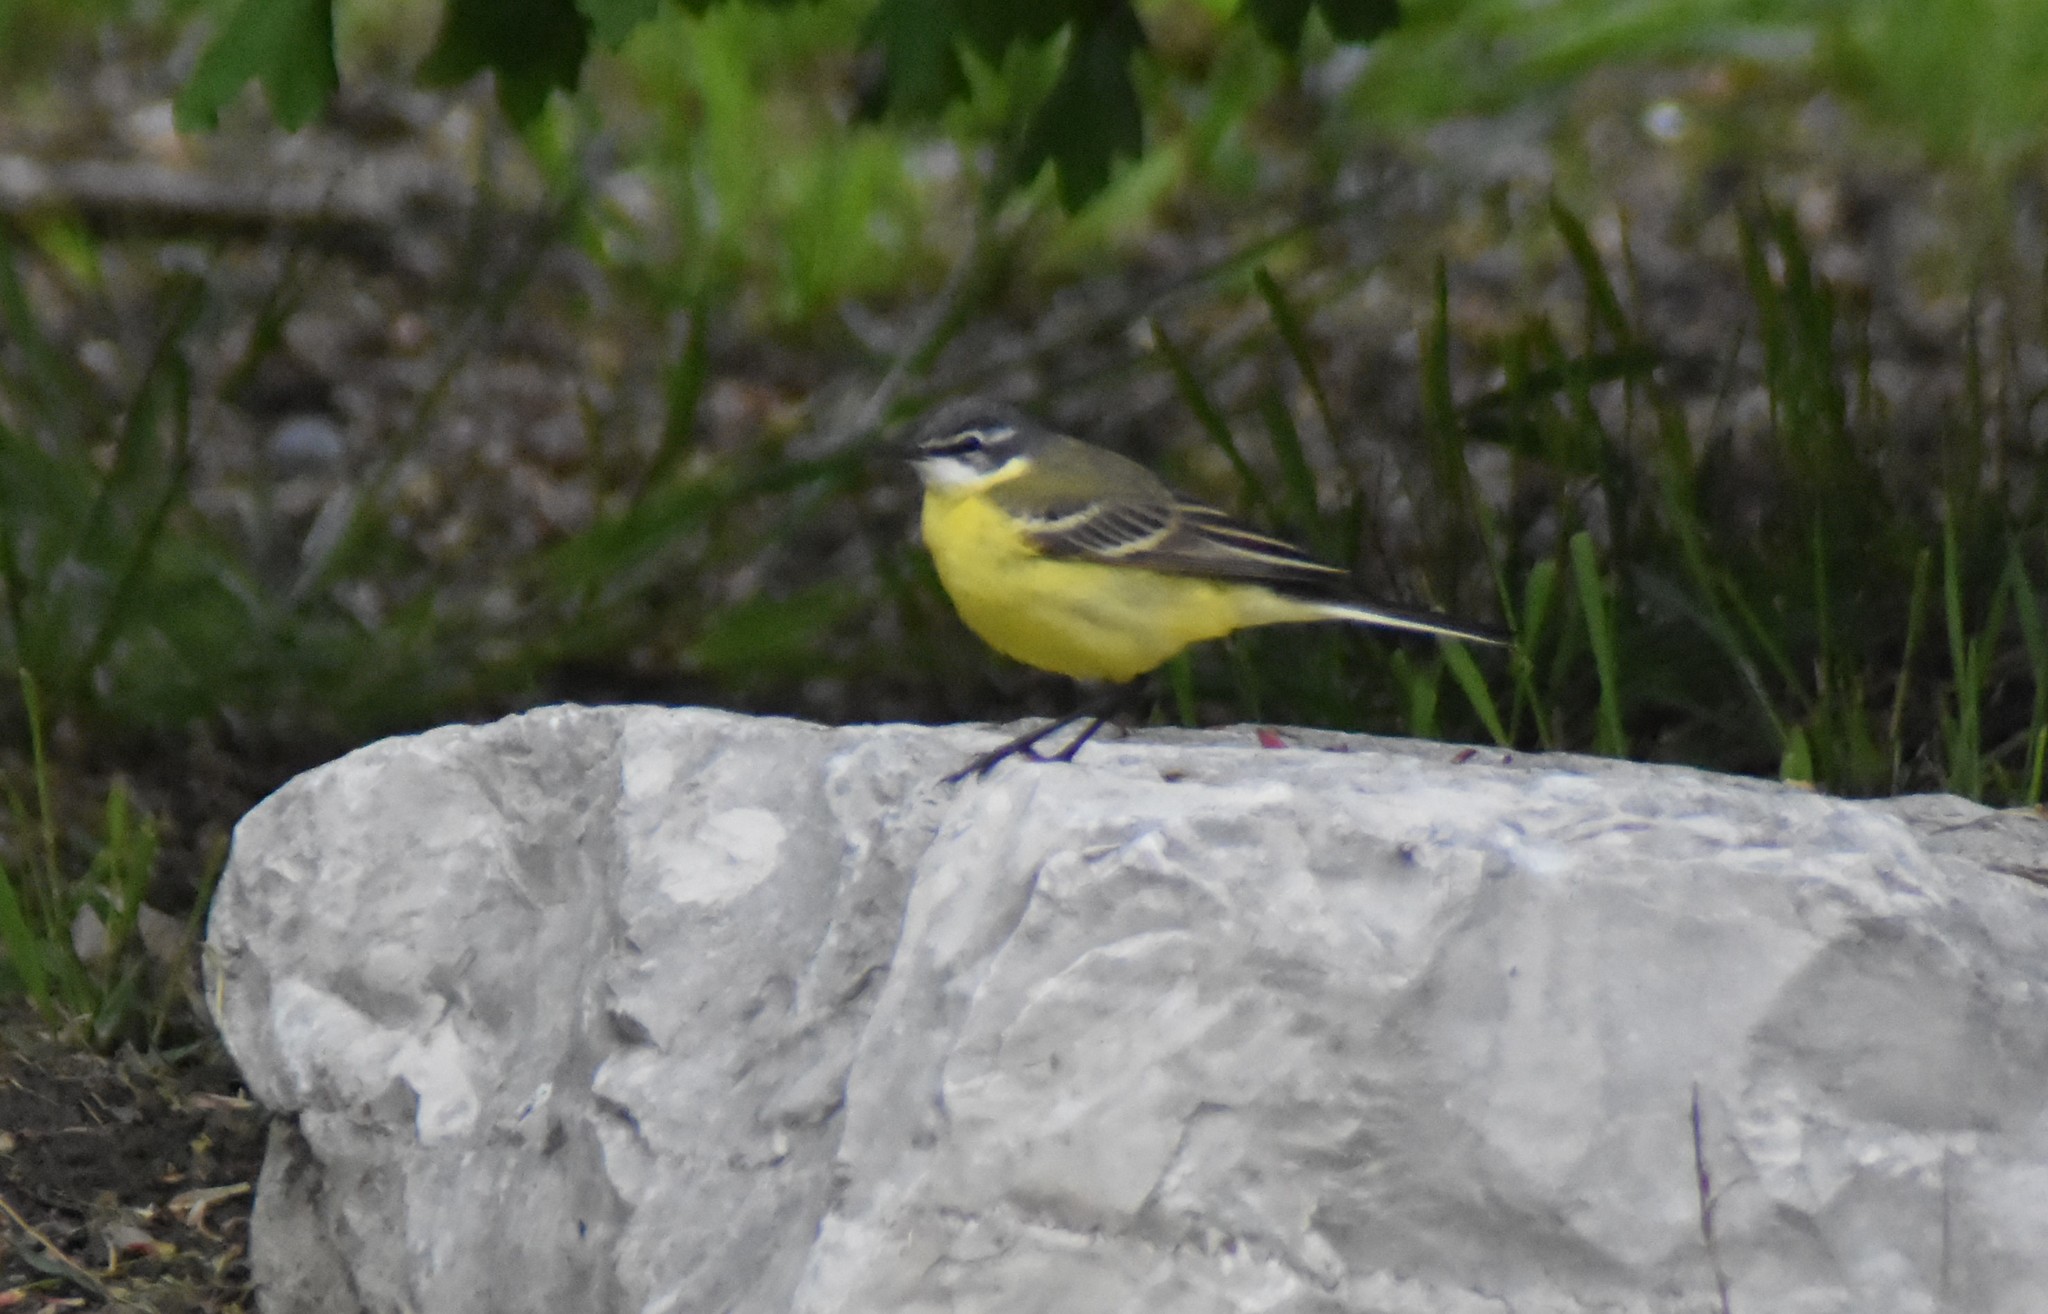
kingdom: Animalia
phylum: Chordata
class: Aves
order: Passeriformes
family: Motacillidae
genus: Motacilla
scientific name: Motacilla flava
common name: Western yellow wagtail
